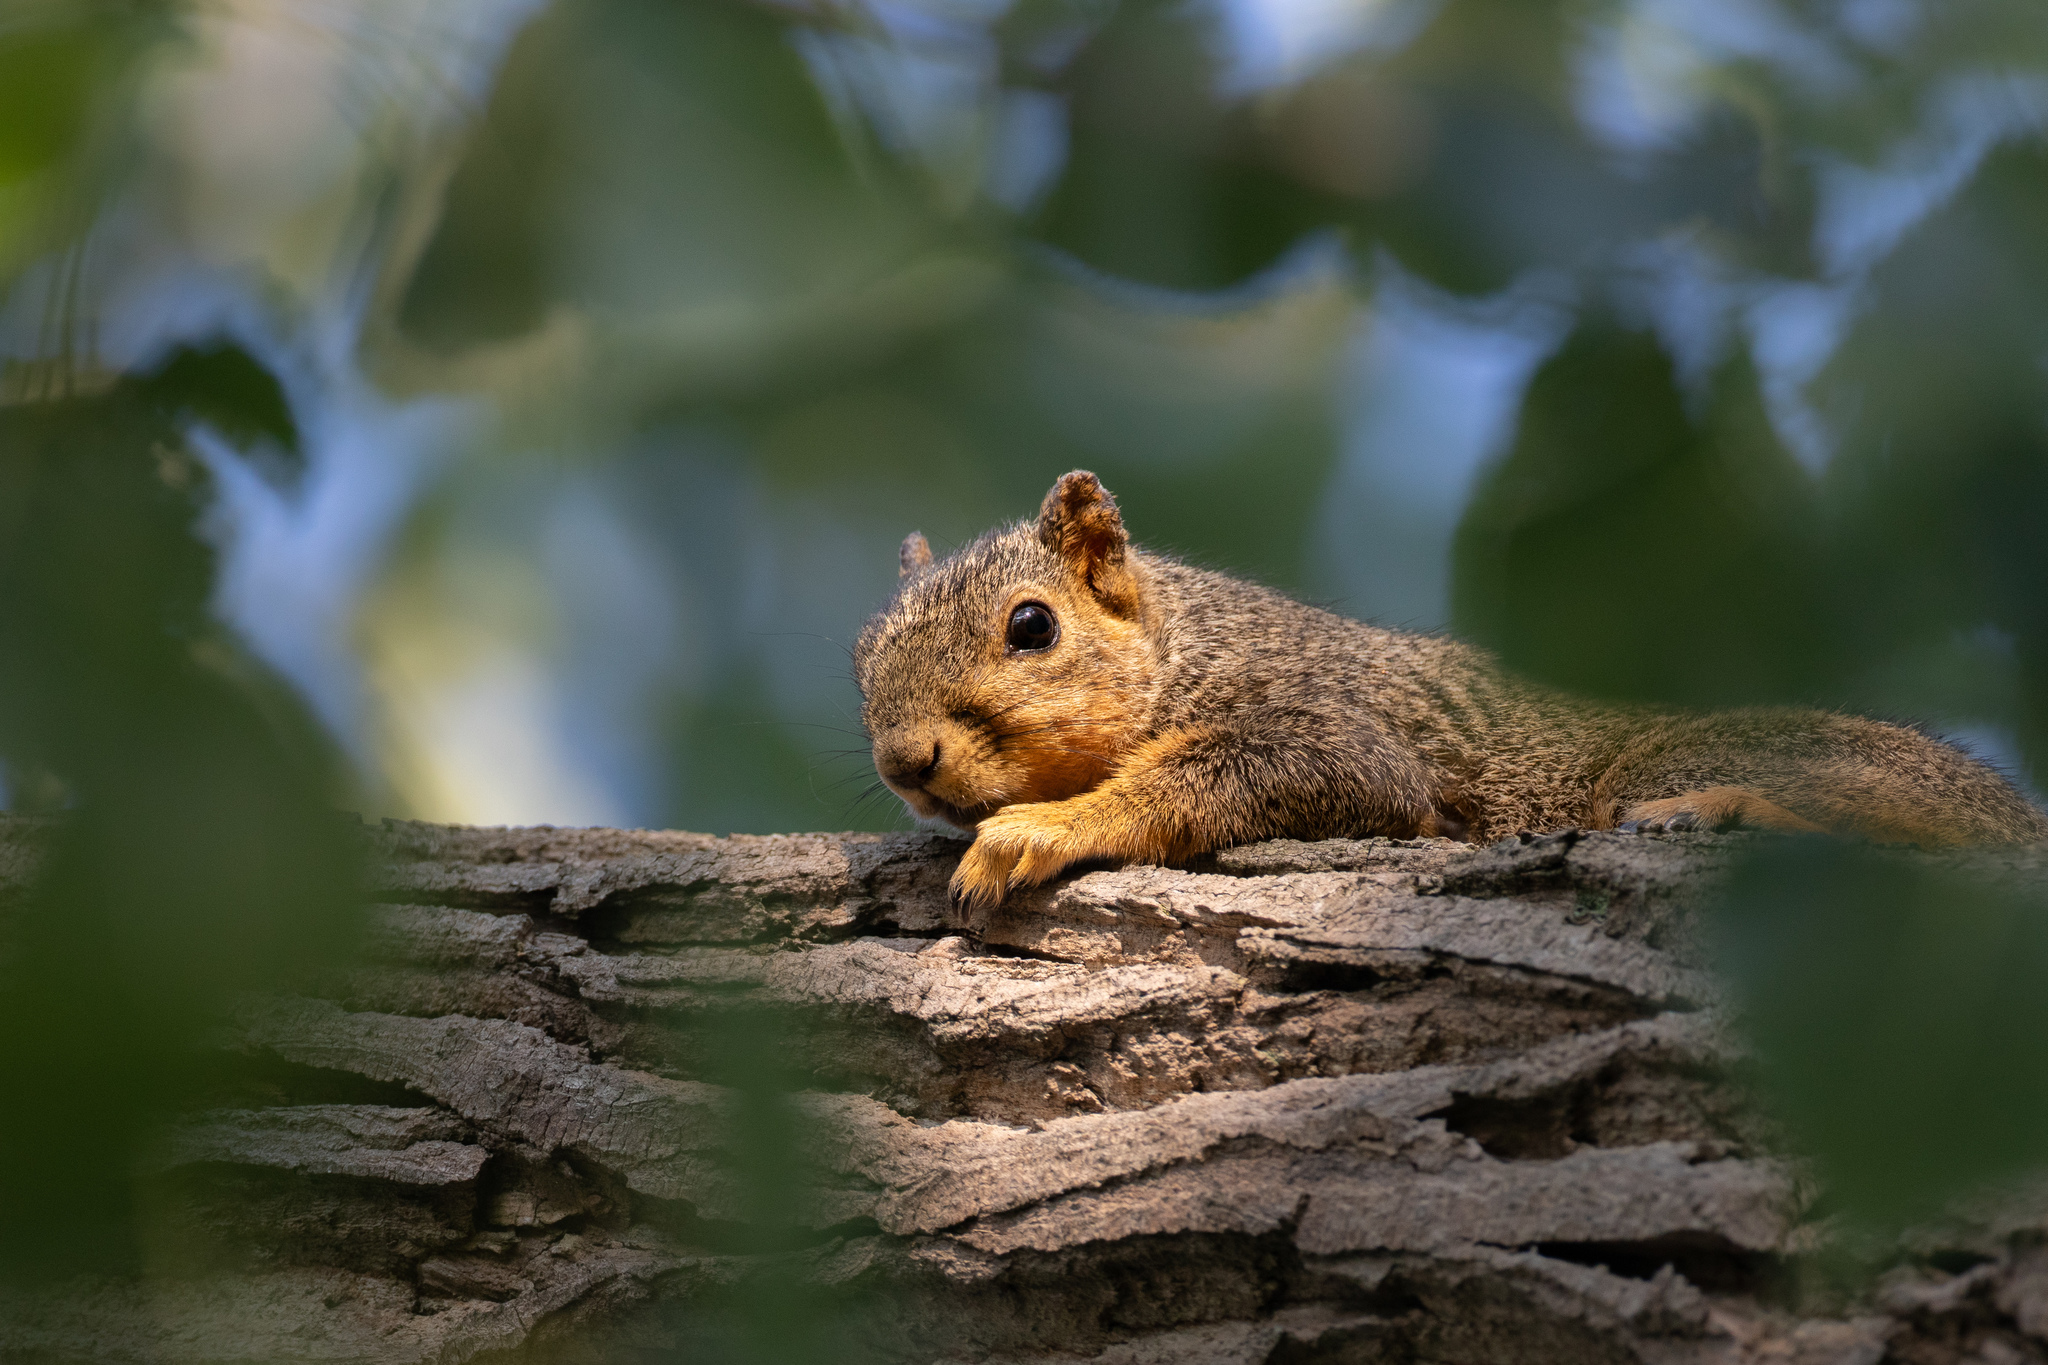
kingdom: Animalia
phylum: Chordata
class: Mammalia
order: Rodentia
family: Sciuridae
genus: Sciurus
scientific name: Sciurus niger
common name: Fox squirrel
